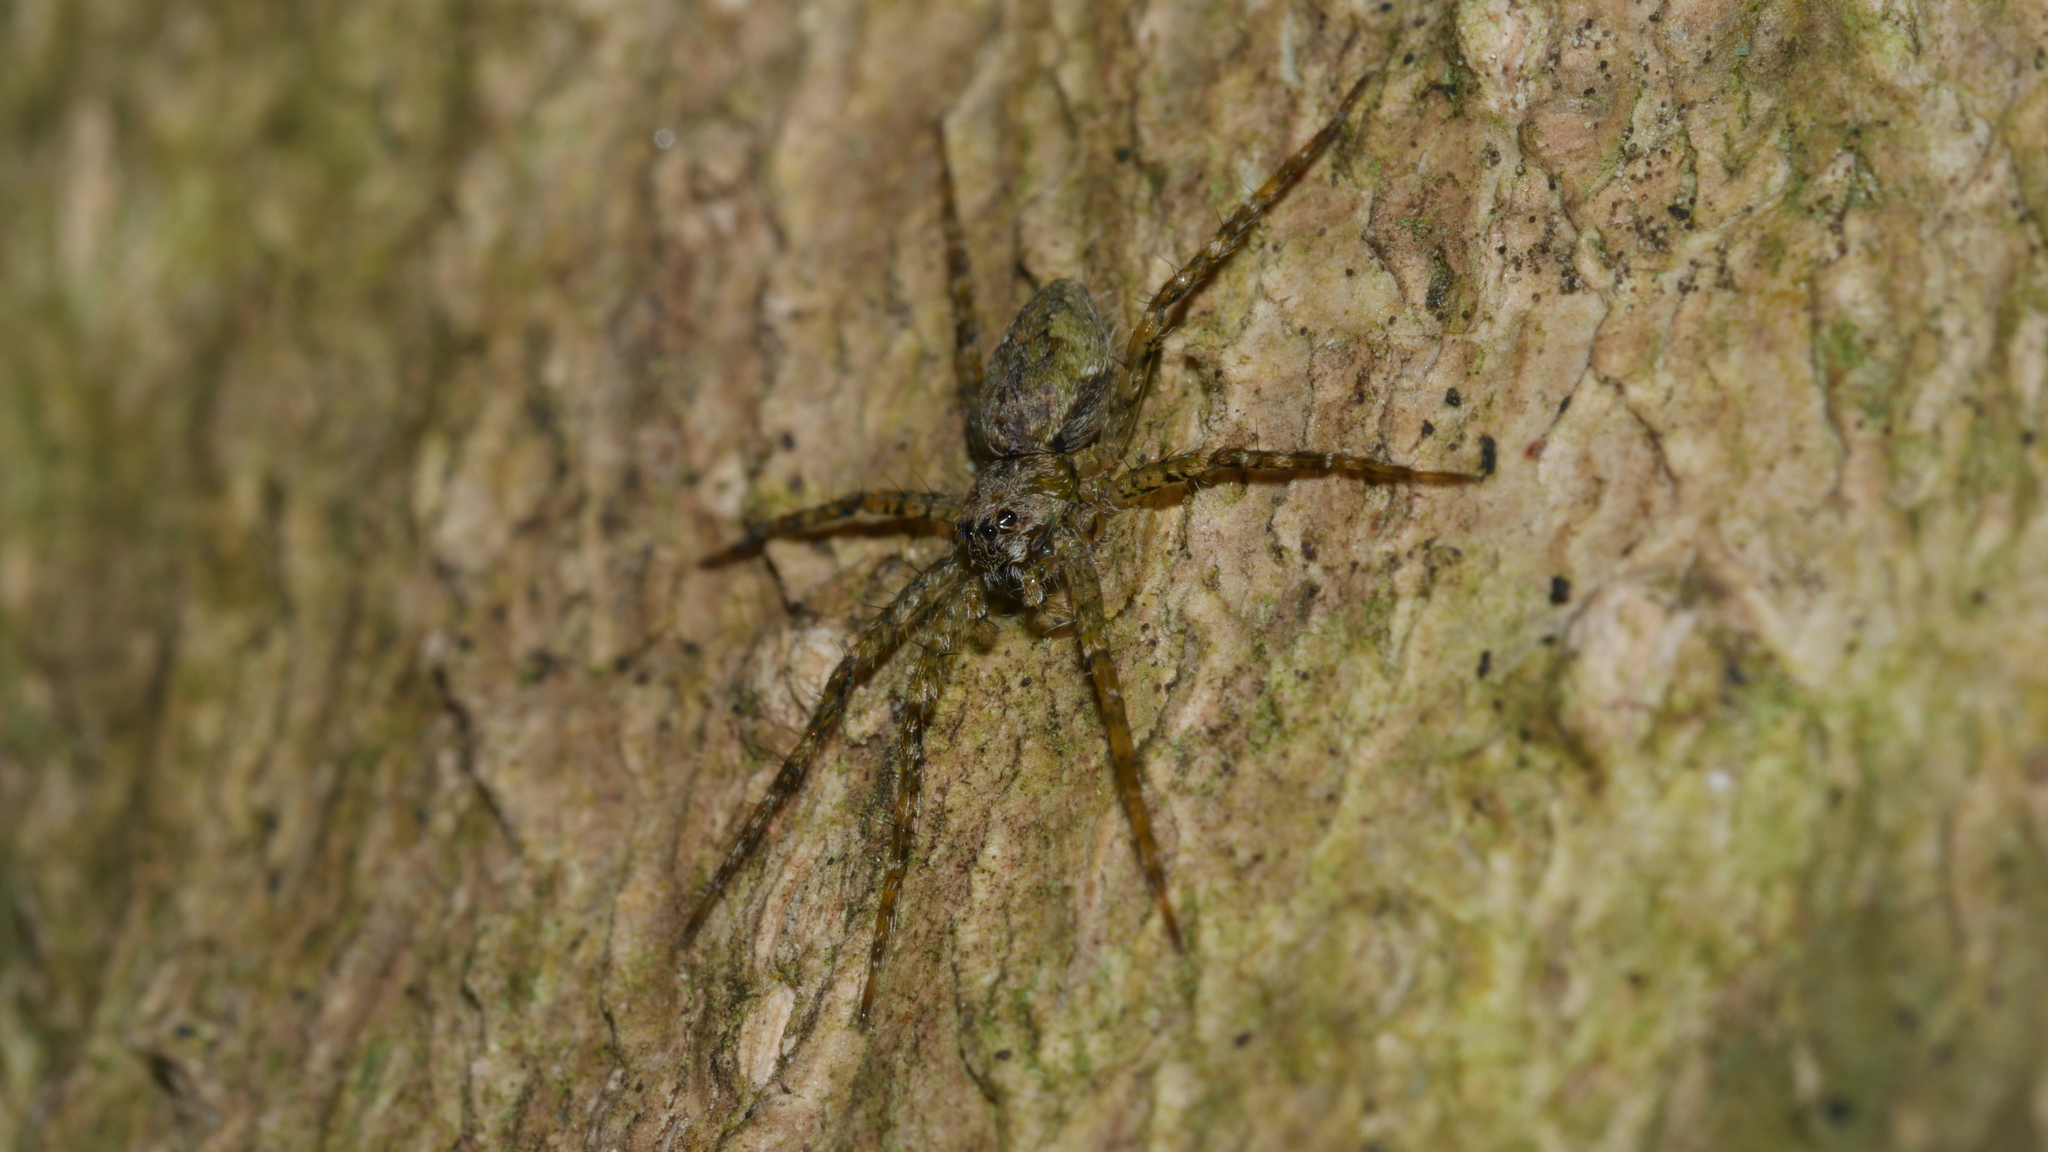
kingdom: Animalia
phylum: Arthropoda
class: Arachnida
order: Araneae
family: Pisauridae
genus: Dolomedes
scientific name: Dolomedes albineus
